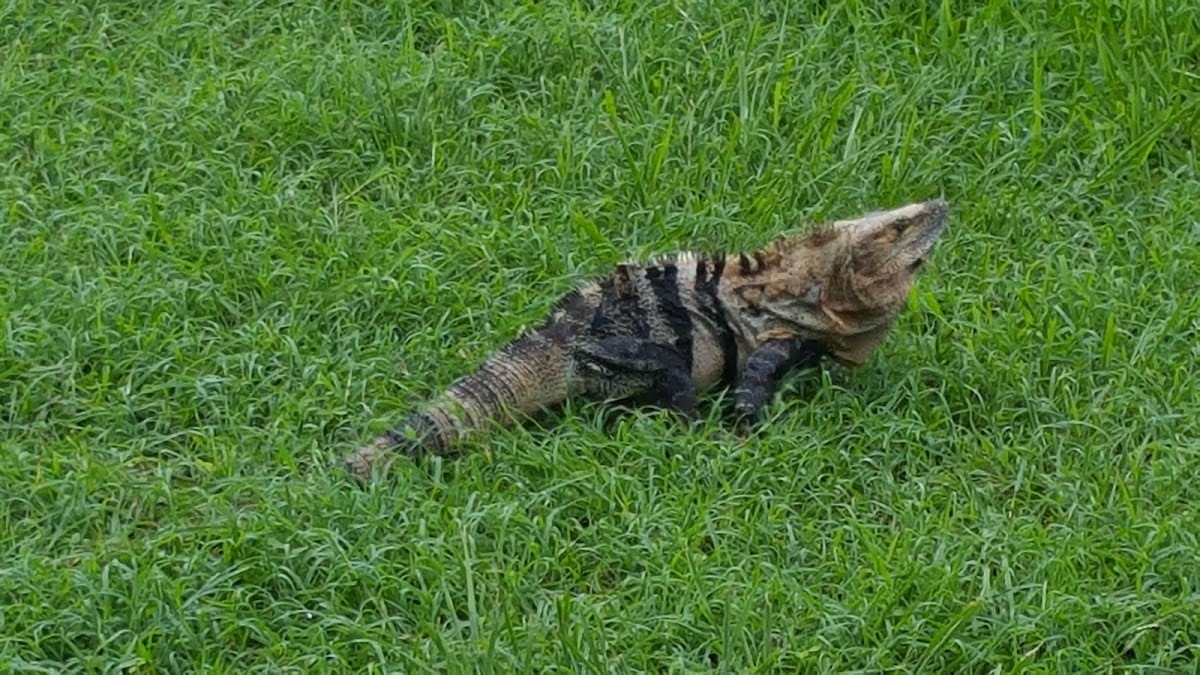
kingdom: Animalia
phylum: Chordata
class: Squamata
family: Iguanidae
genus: Ctenosaura
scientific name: Ctenosaura similis
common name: Black spiny-tailed iguana
